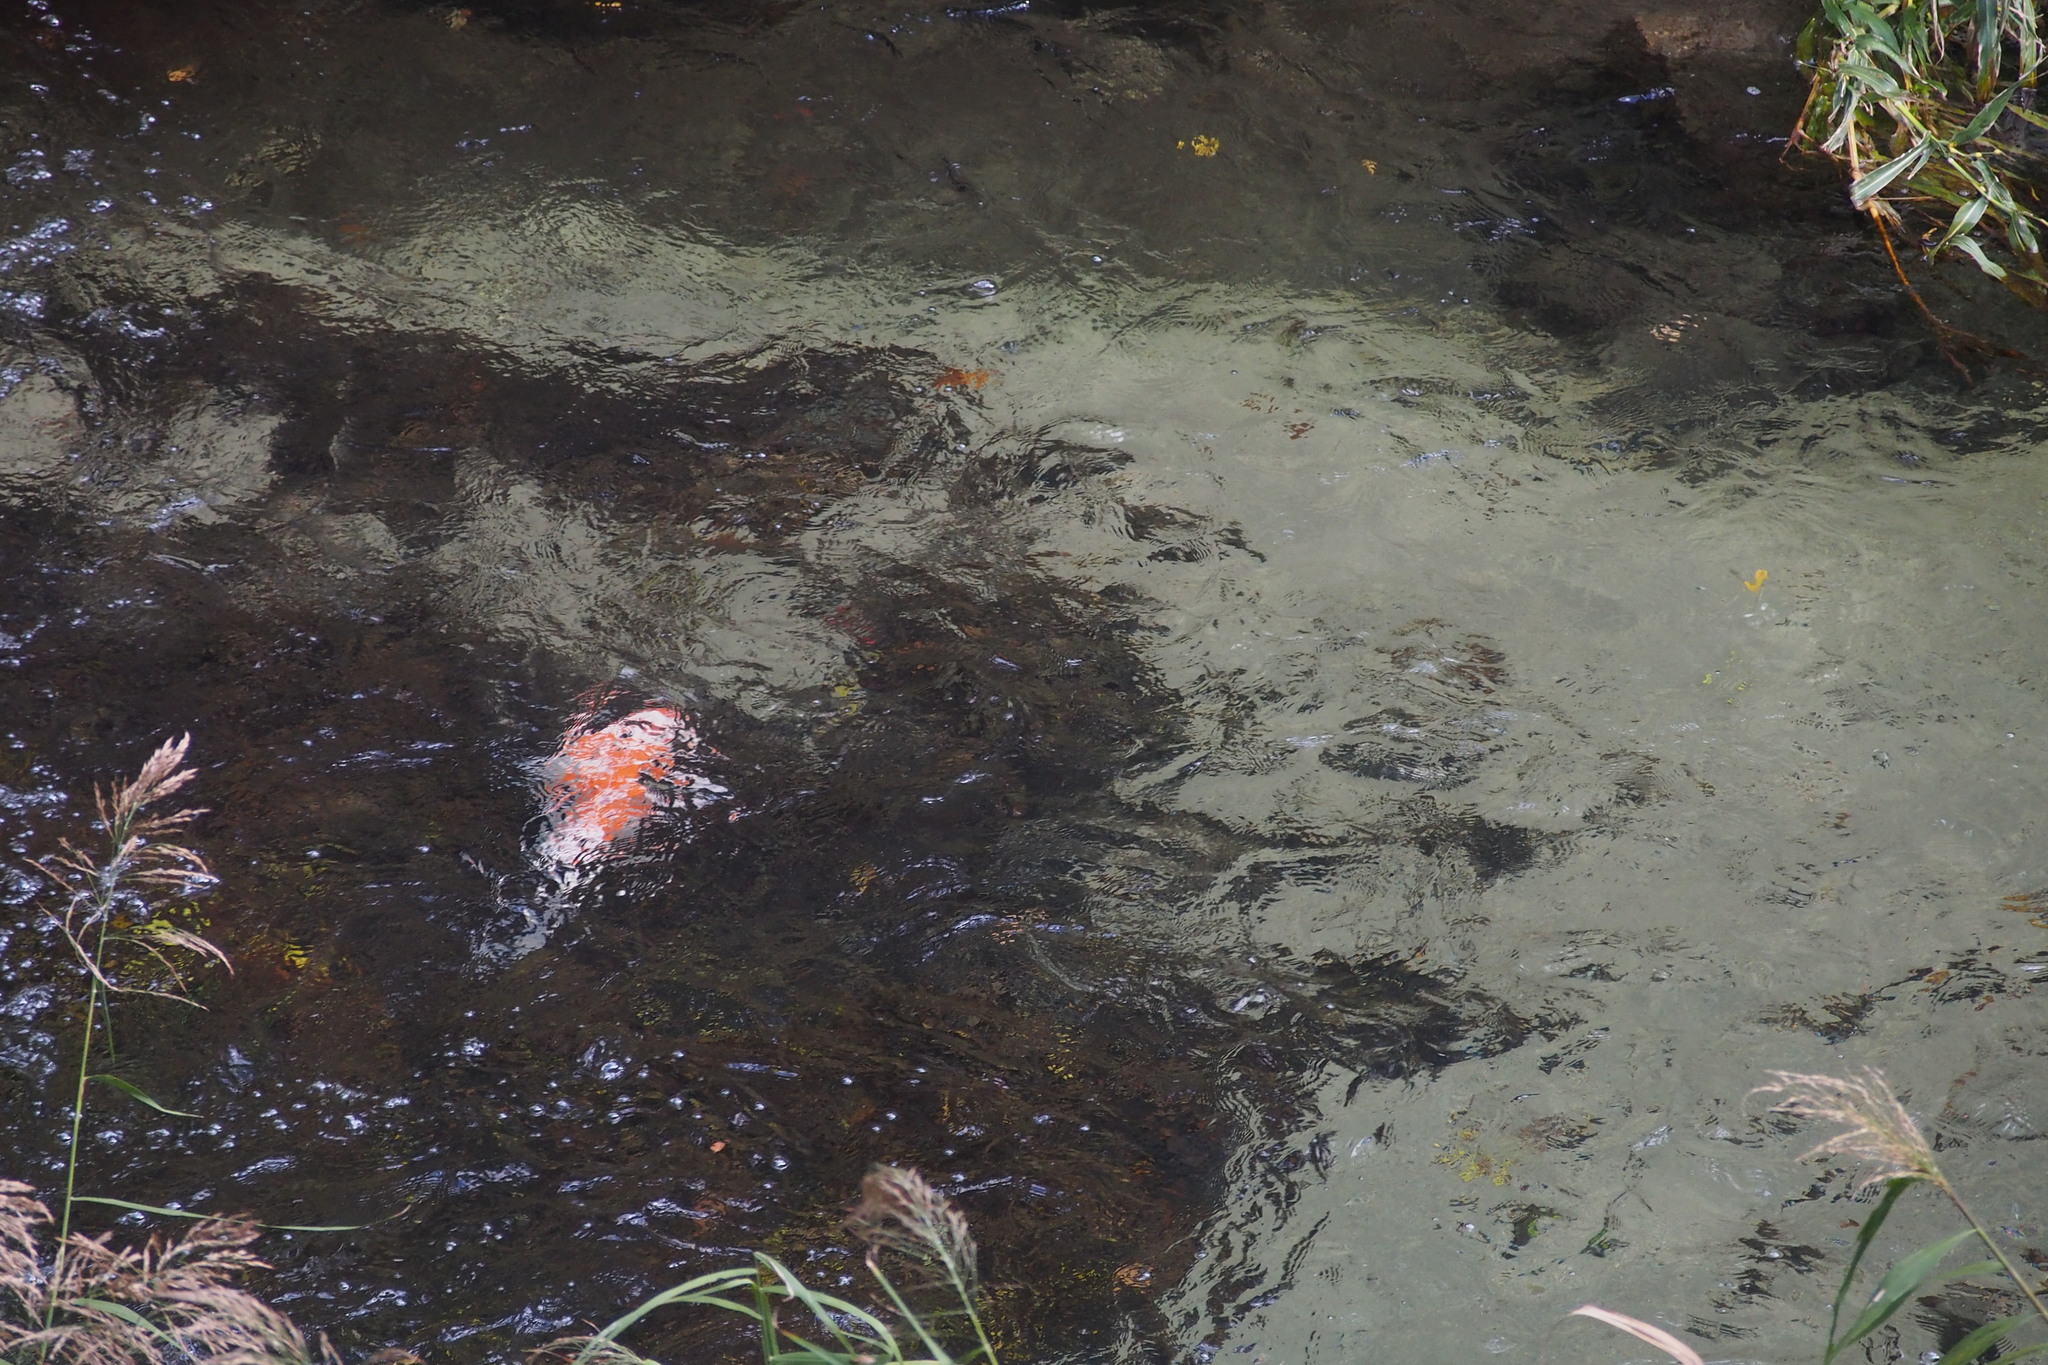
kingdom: Animalia
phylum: Chordata
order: Cypriniformes
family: Cyprinidae
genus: Cyprinus
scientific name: Cyprinus rubrofuscus
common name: Koi
